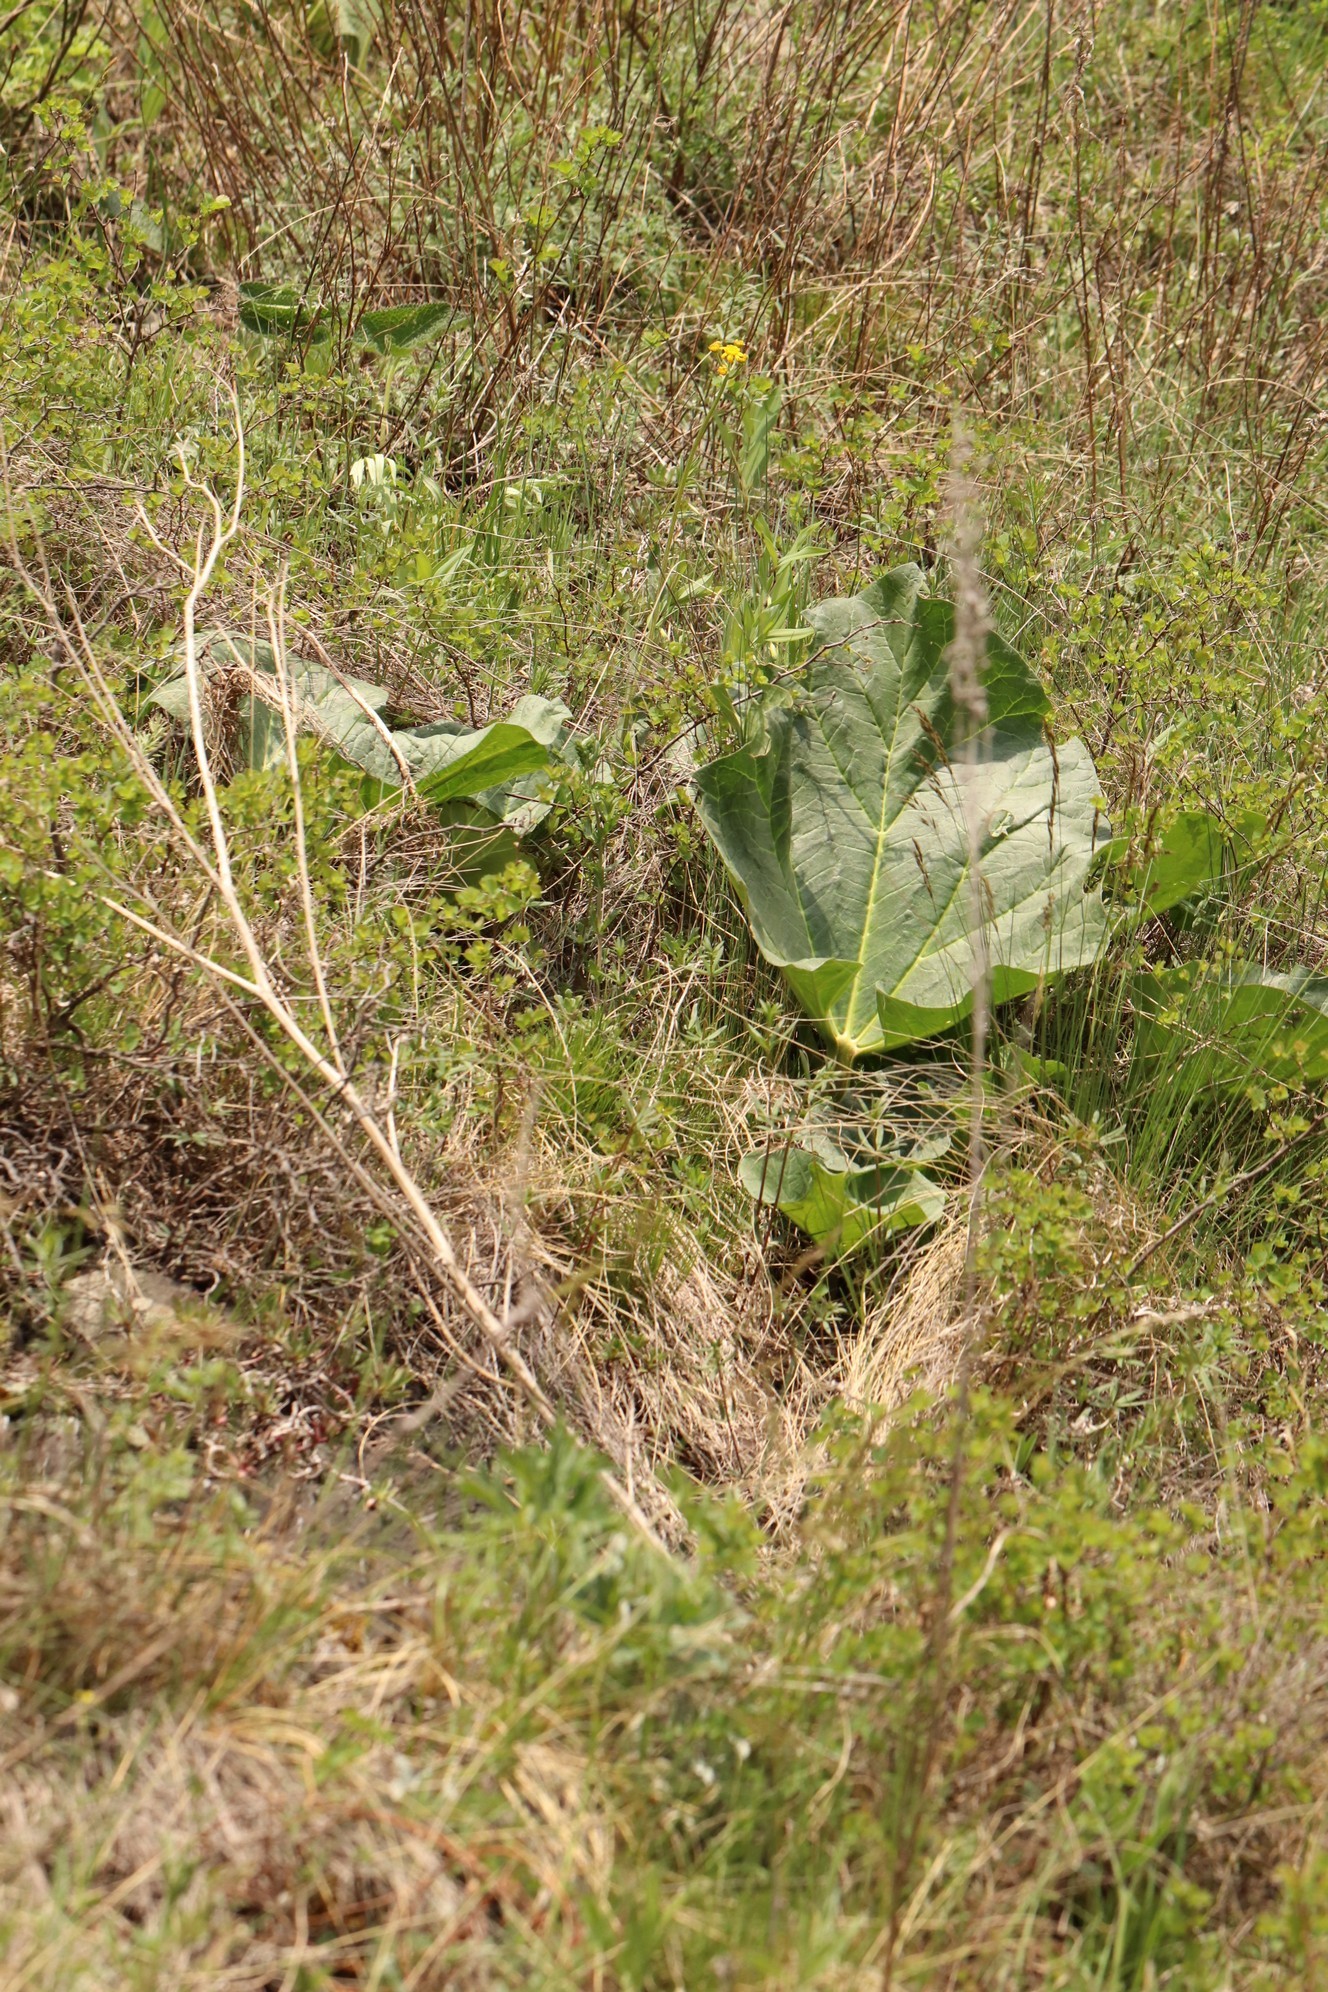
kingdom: Plantae
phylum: Tracheophyta
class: Magnoliopsida
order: Caryophyllales
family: Polygonaceae
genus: Rheum
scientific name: Rheum compactum
